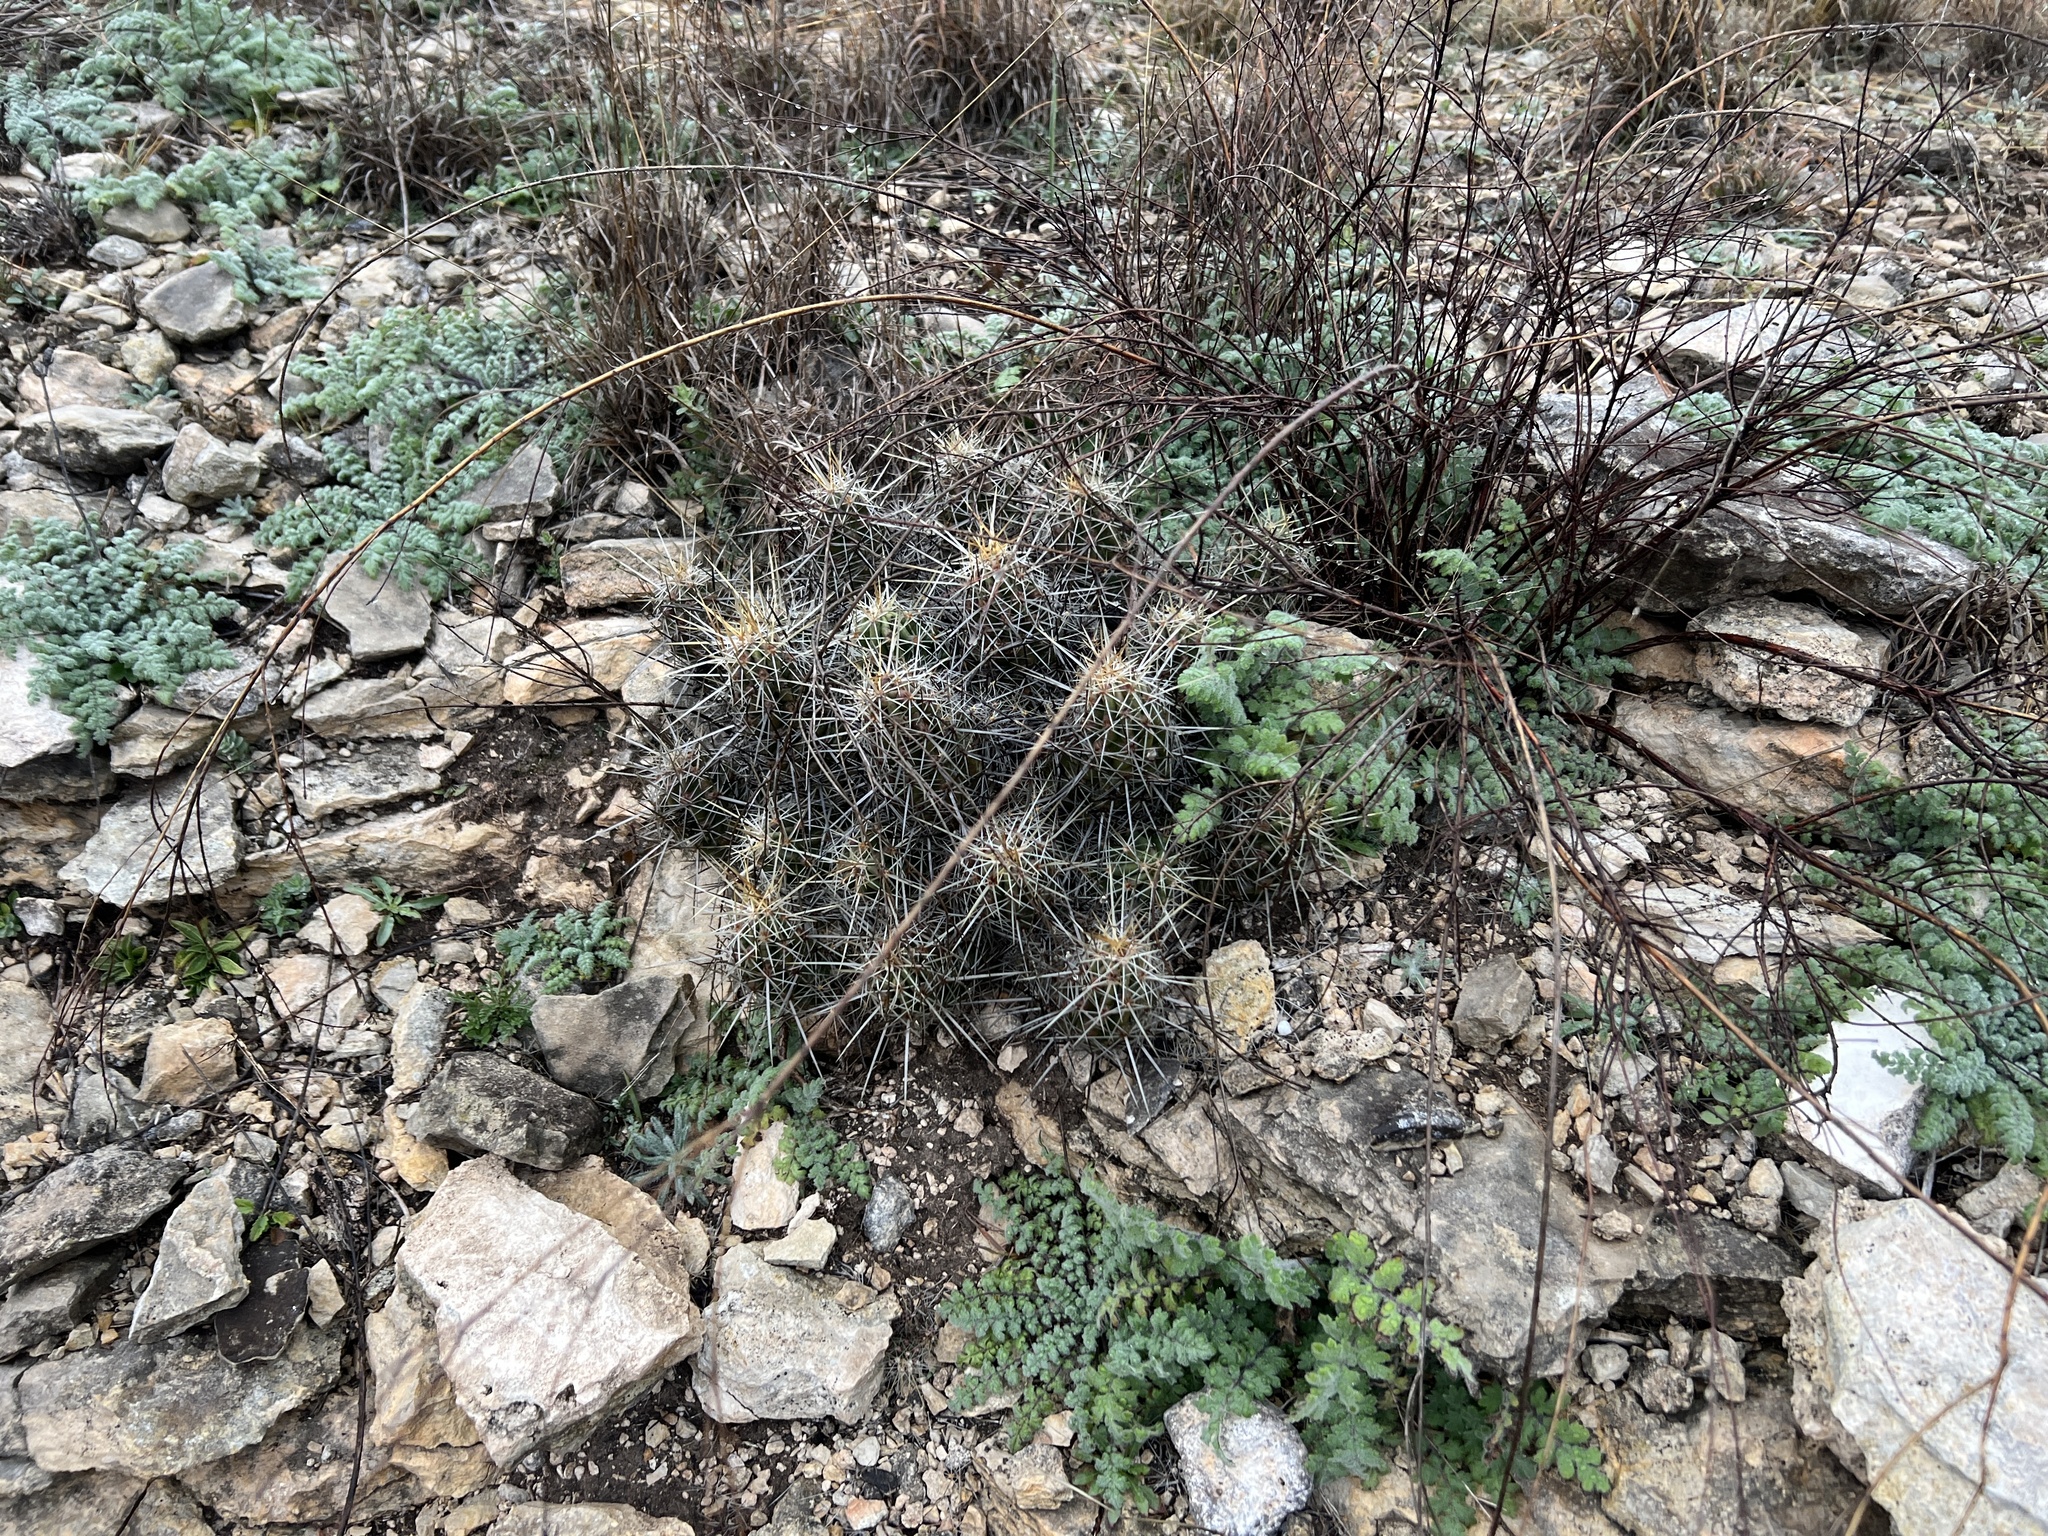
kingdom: Plantae
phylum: Tracheophyta
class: Magnoliopsida
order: Caryophyllales
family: Cactaceae
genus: Echinocereus
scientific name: Echinocereus enneacanthus
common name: Pitaya
